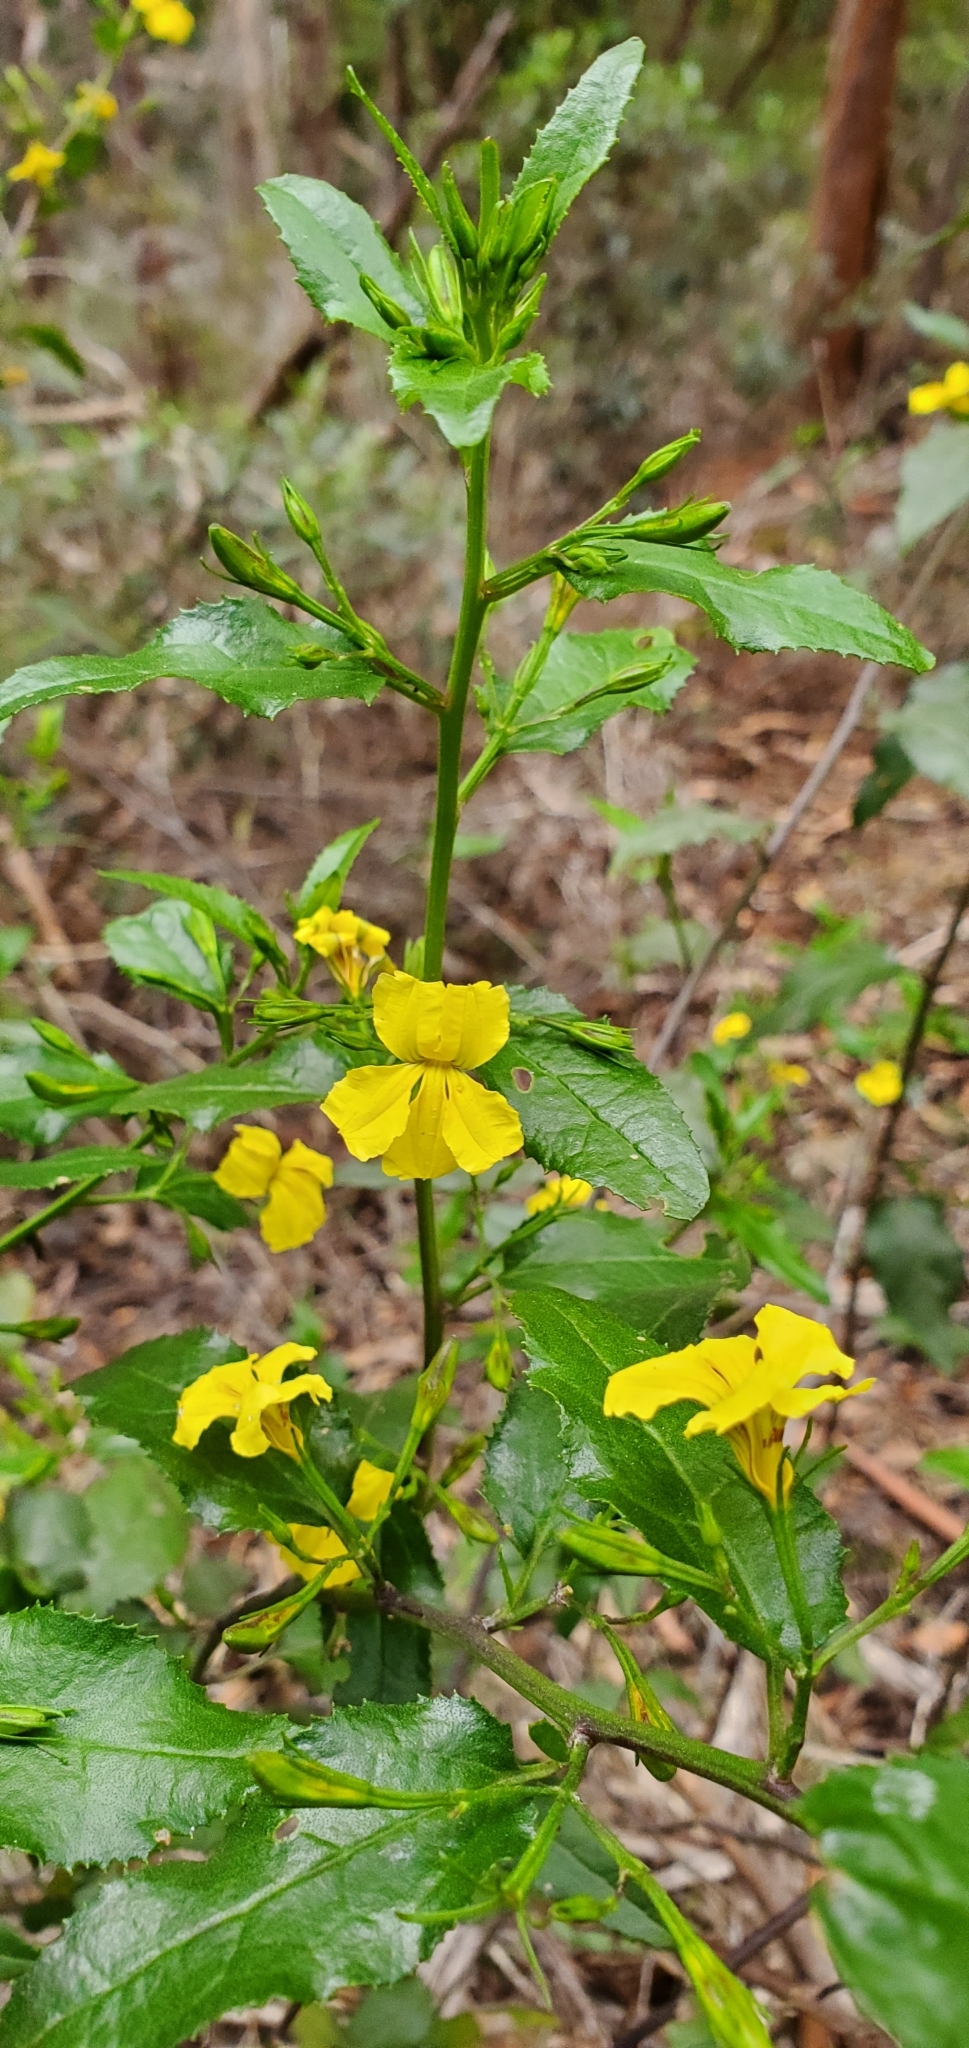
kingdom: Plantae
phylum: Tracheophyta
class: Magnoliopsida
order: Asterales
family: Goodeniaceae
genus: Goodenia
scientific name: Goodenia ovata
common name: Hop goodenia
